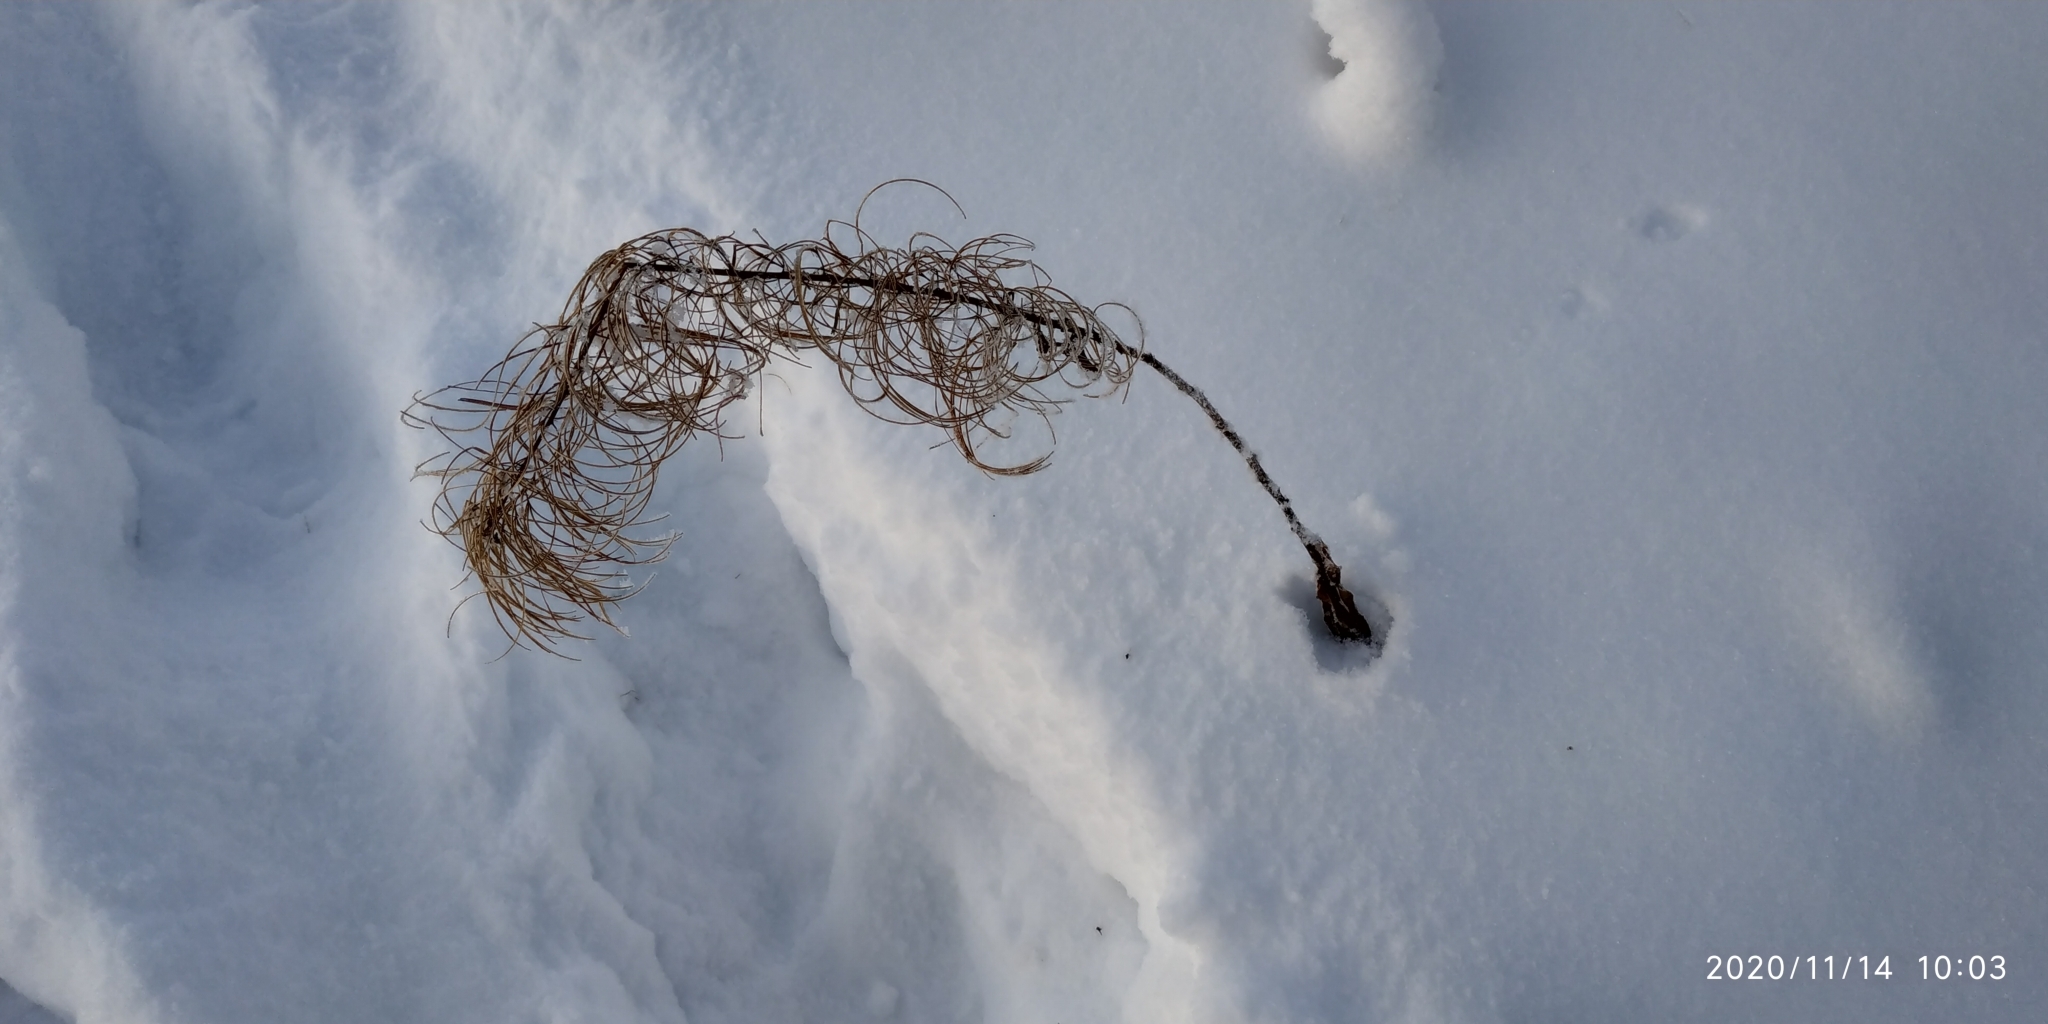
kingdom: Plantae
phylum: Tracheophyta
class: Magnoliopsida
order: Myrtales
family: Onagraceae
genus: Chamaenerion
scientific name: Chamaenerion angustifolium
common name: Fireweed
